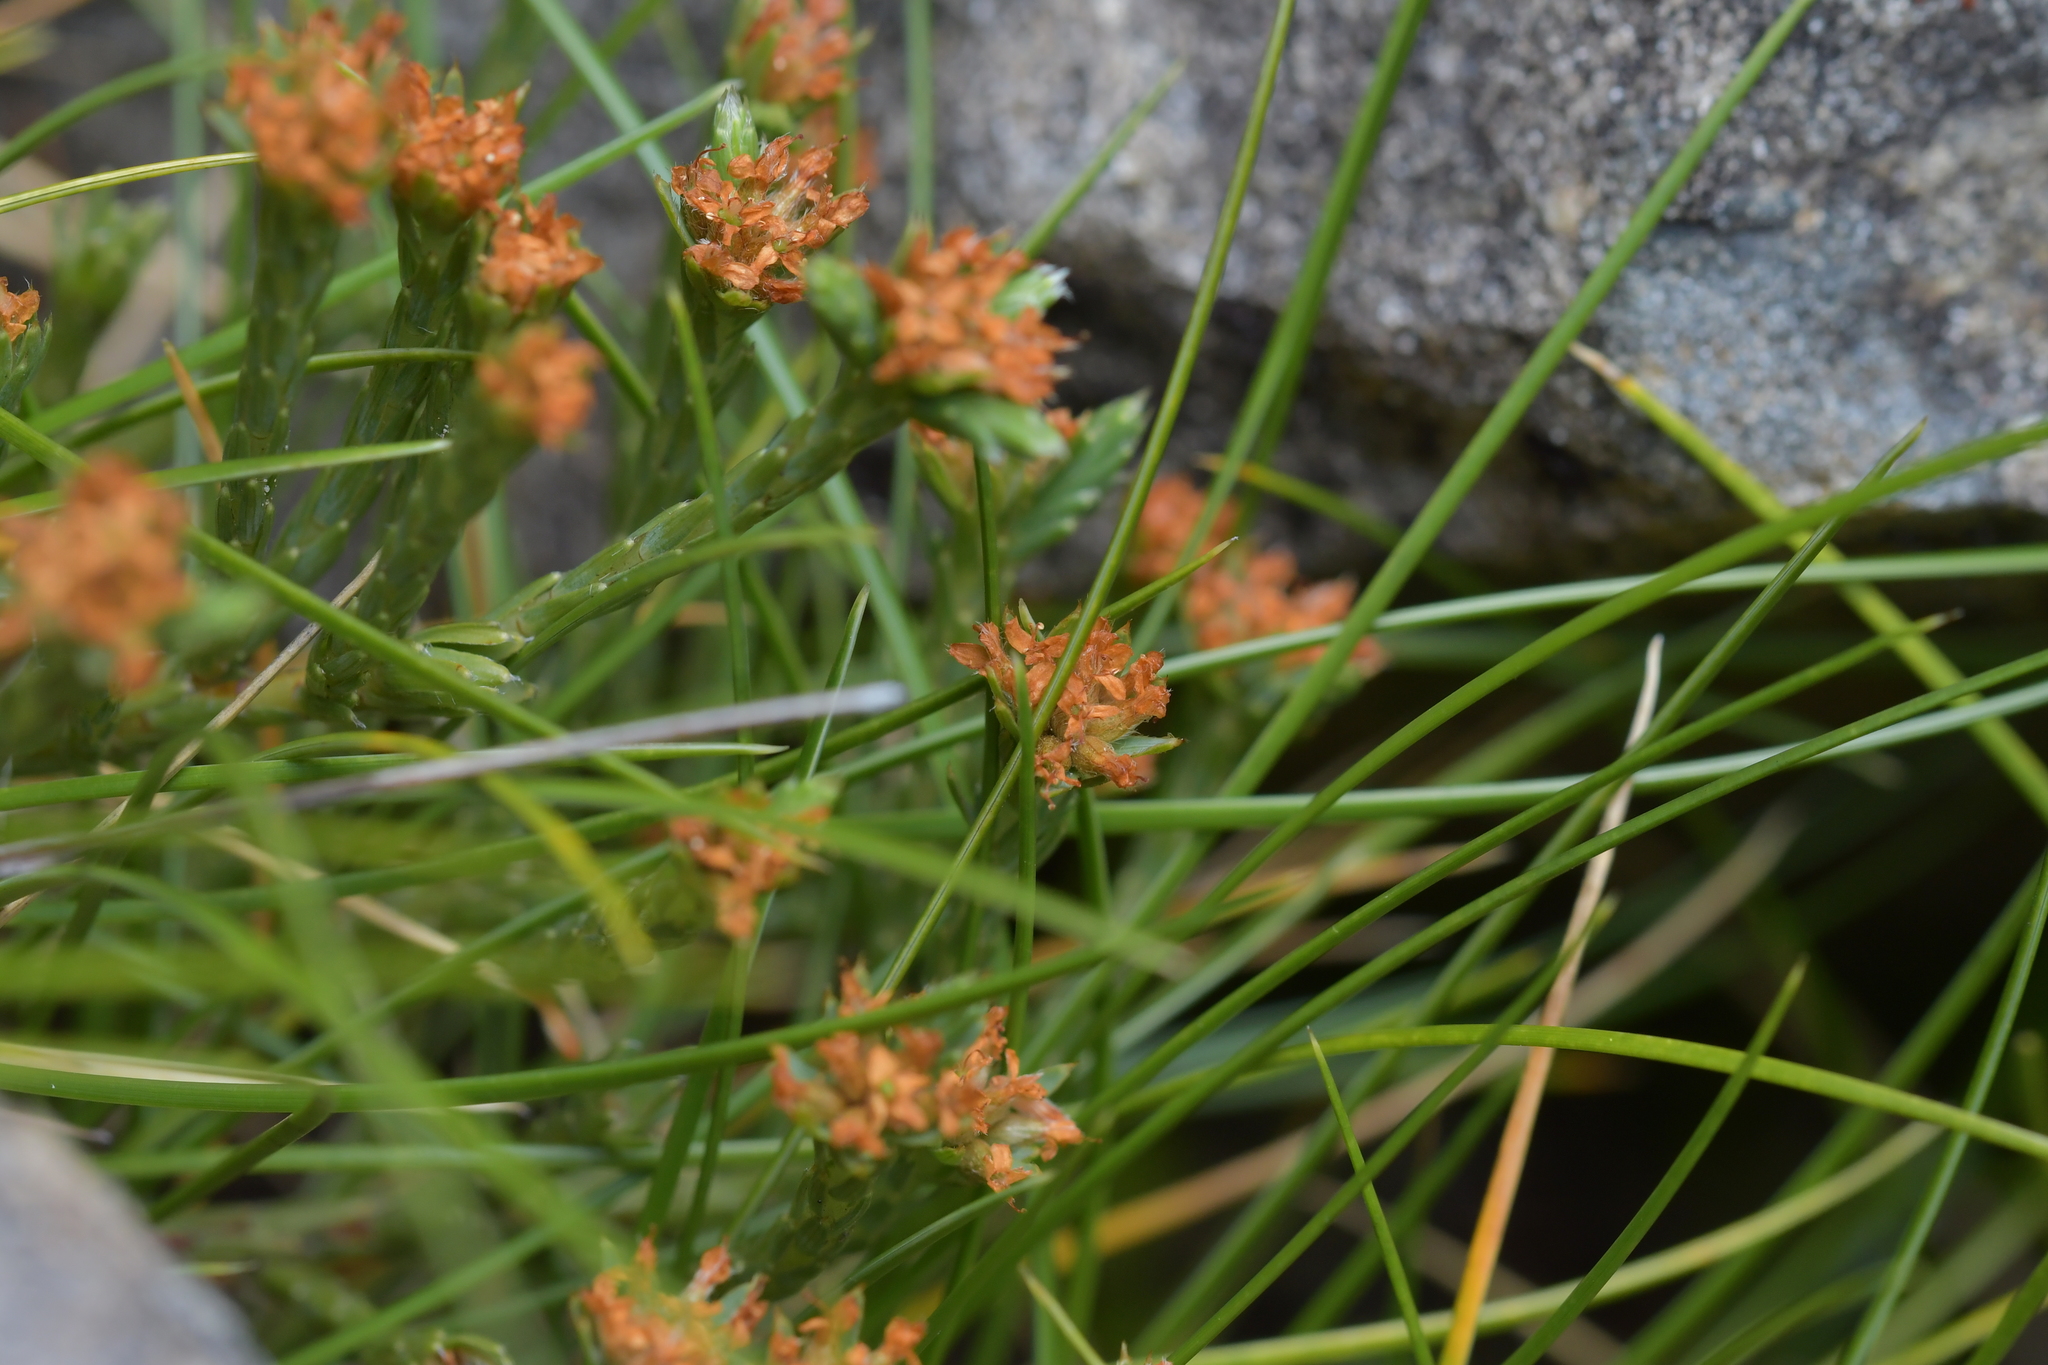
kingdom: Plantae
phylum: Tracheophyta
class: Magnoliopsida
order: Malvales
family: Thymelaeaceae
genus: Kelleria
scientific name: Kelleria multiflora
